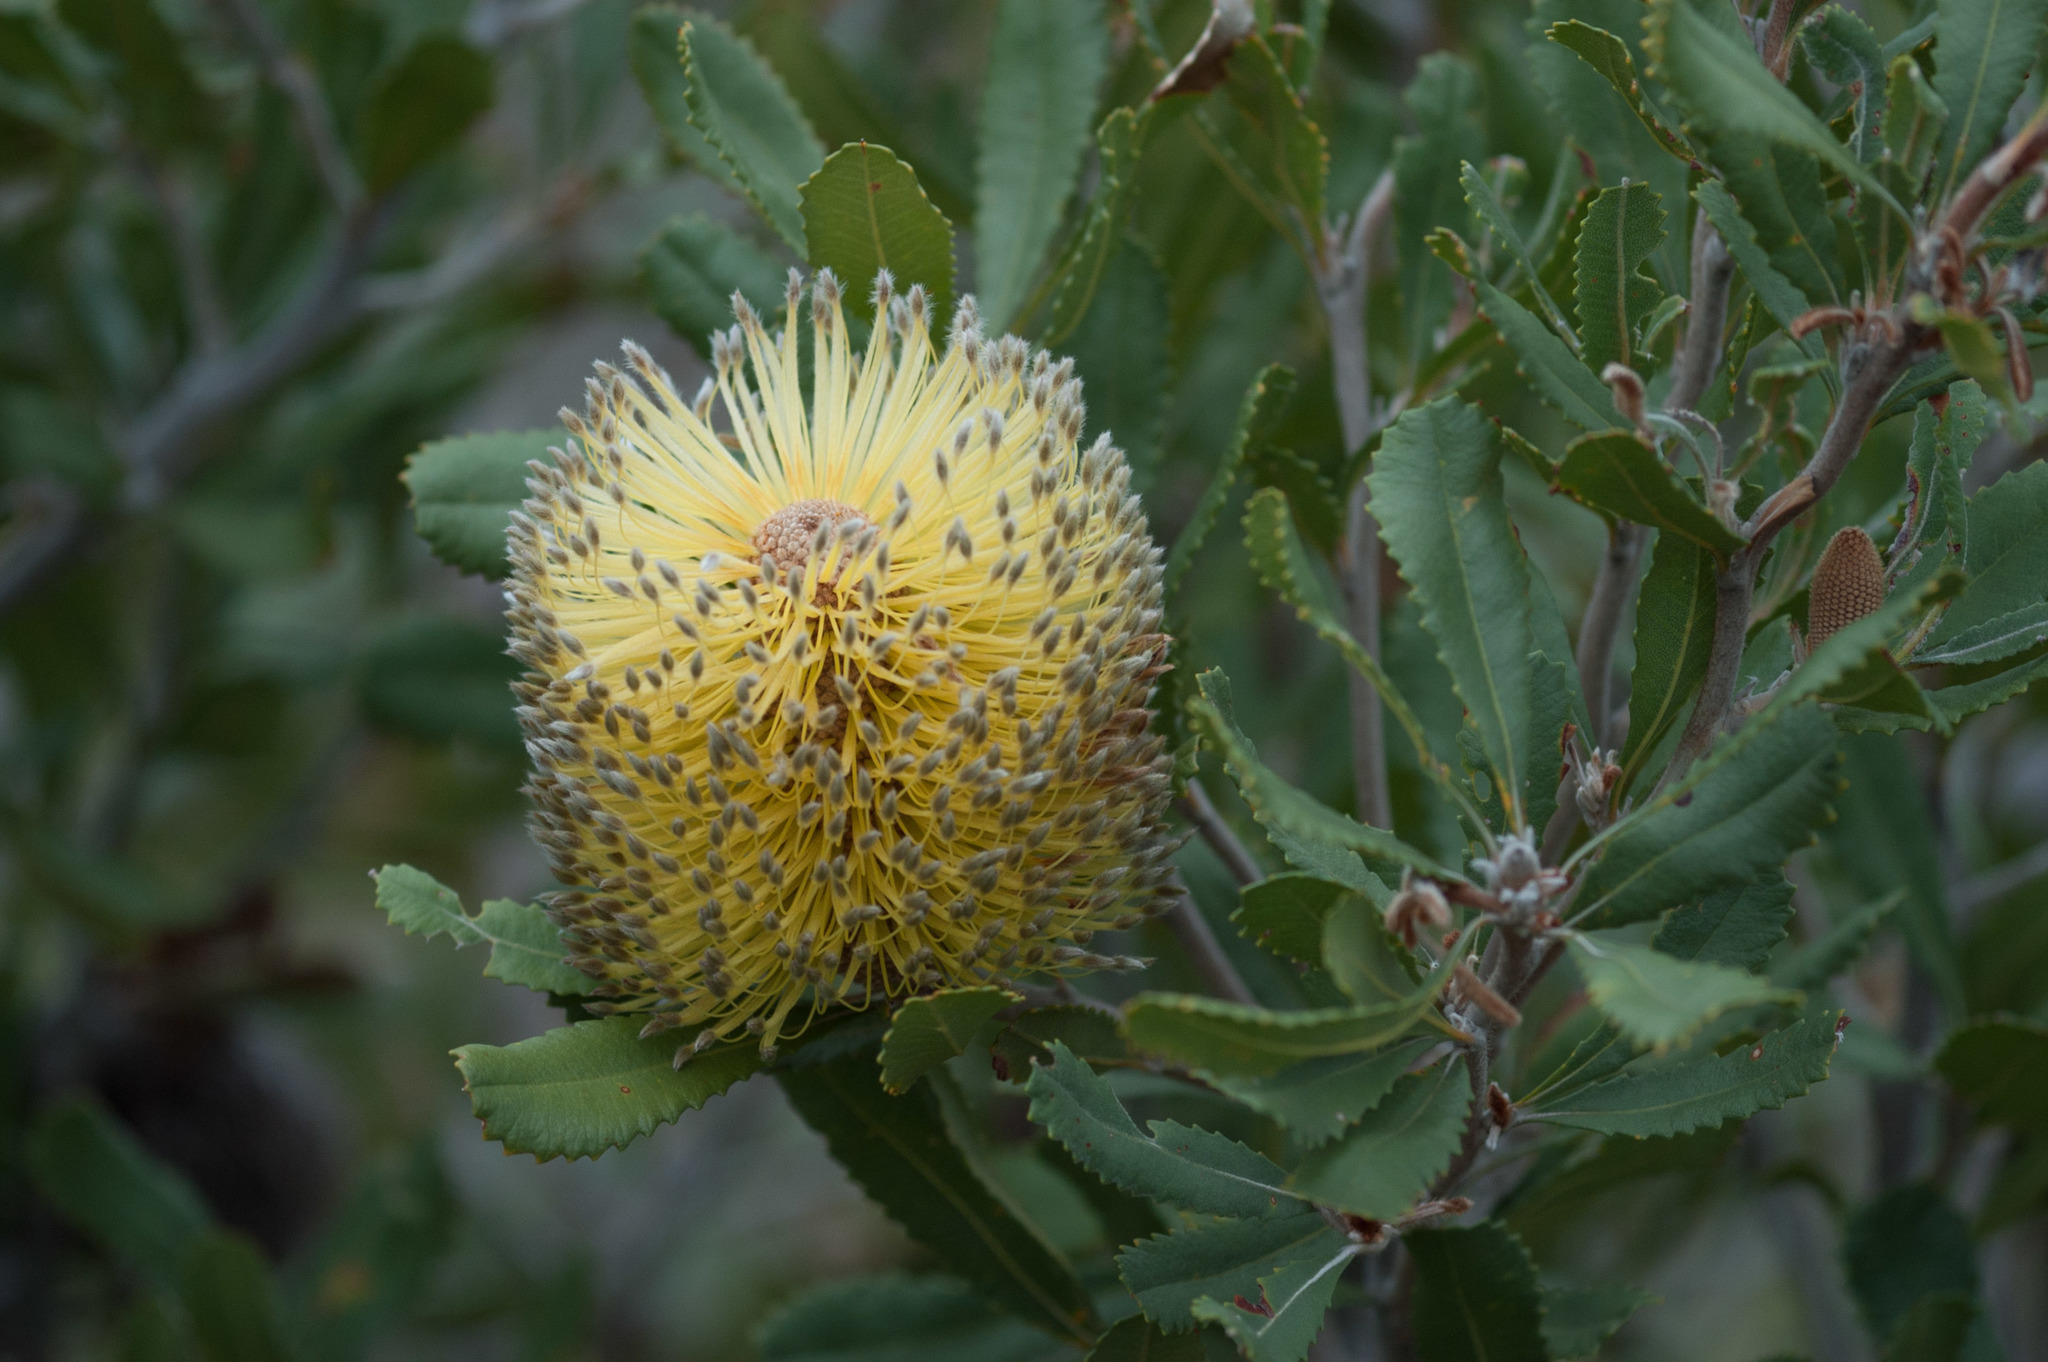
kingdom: Plantae
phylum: Tracheophyta
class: Magnoliopsida
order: Proteales
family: Proteaceae
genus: Banksia
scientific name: Banksia ornata
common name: Desert banksia
